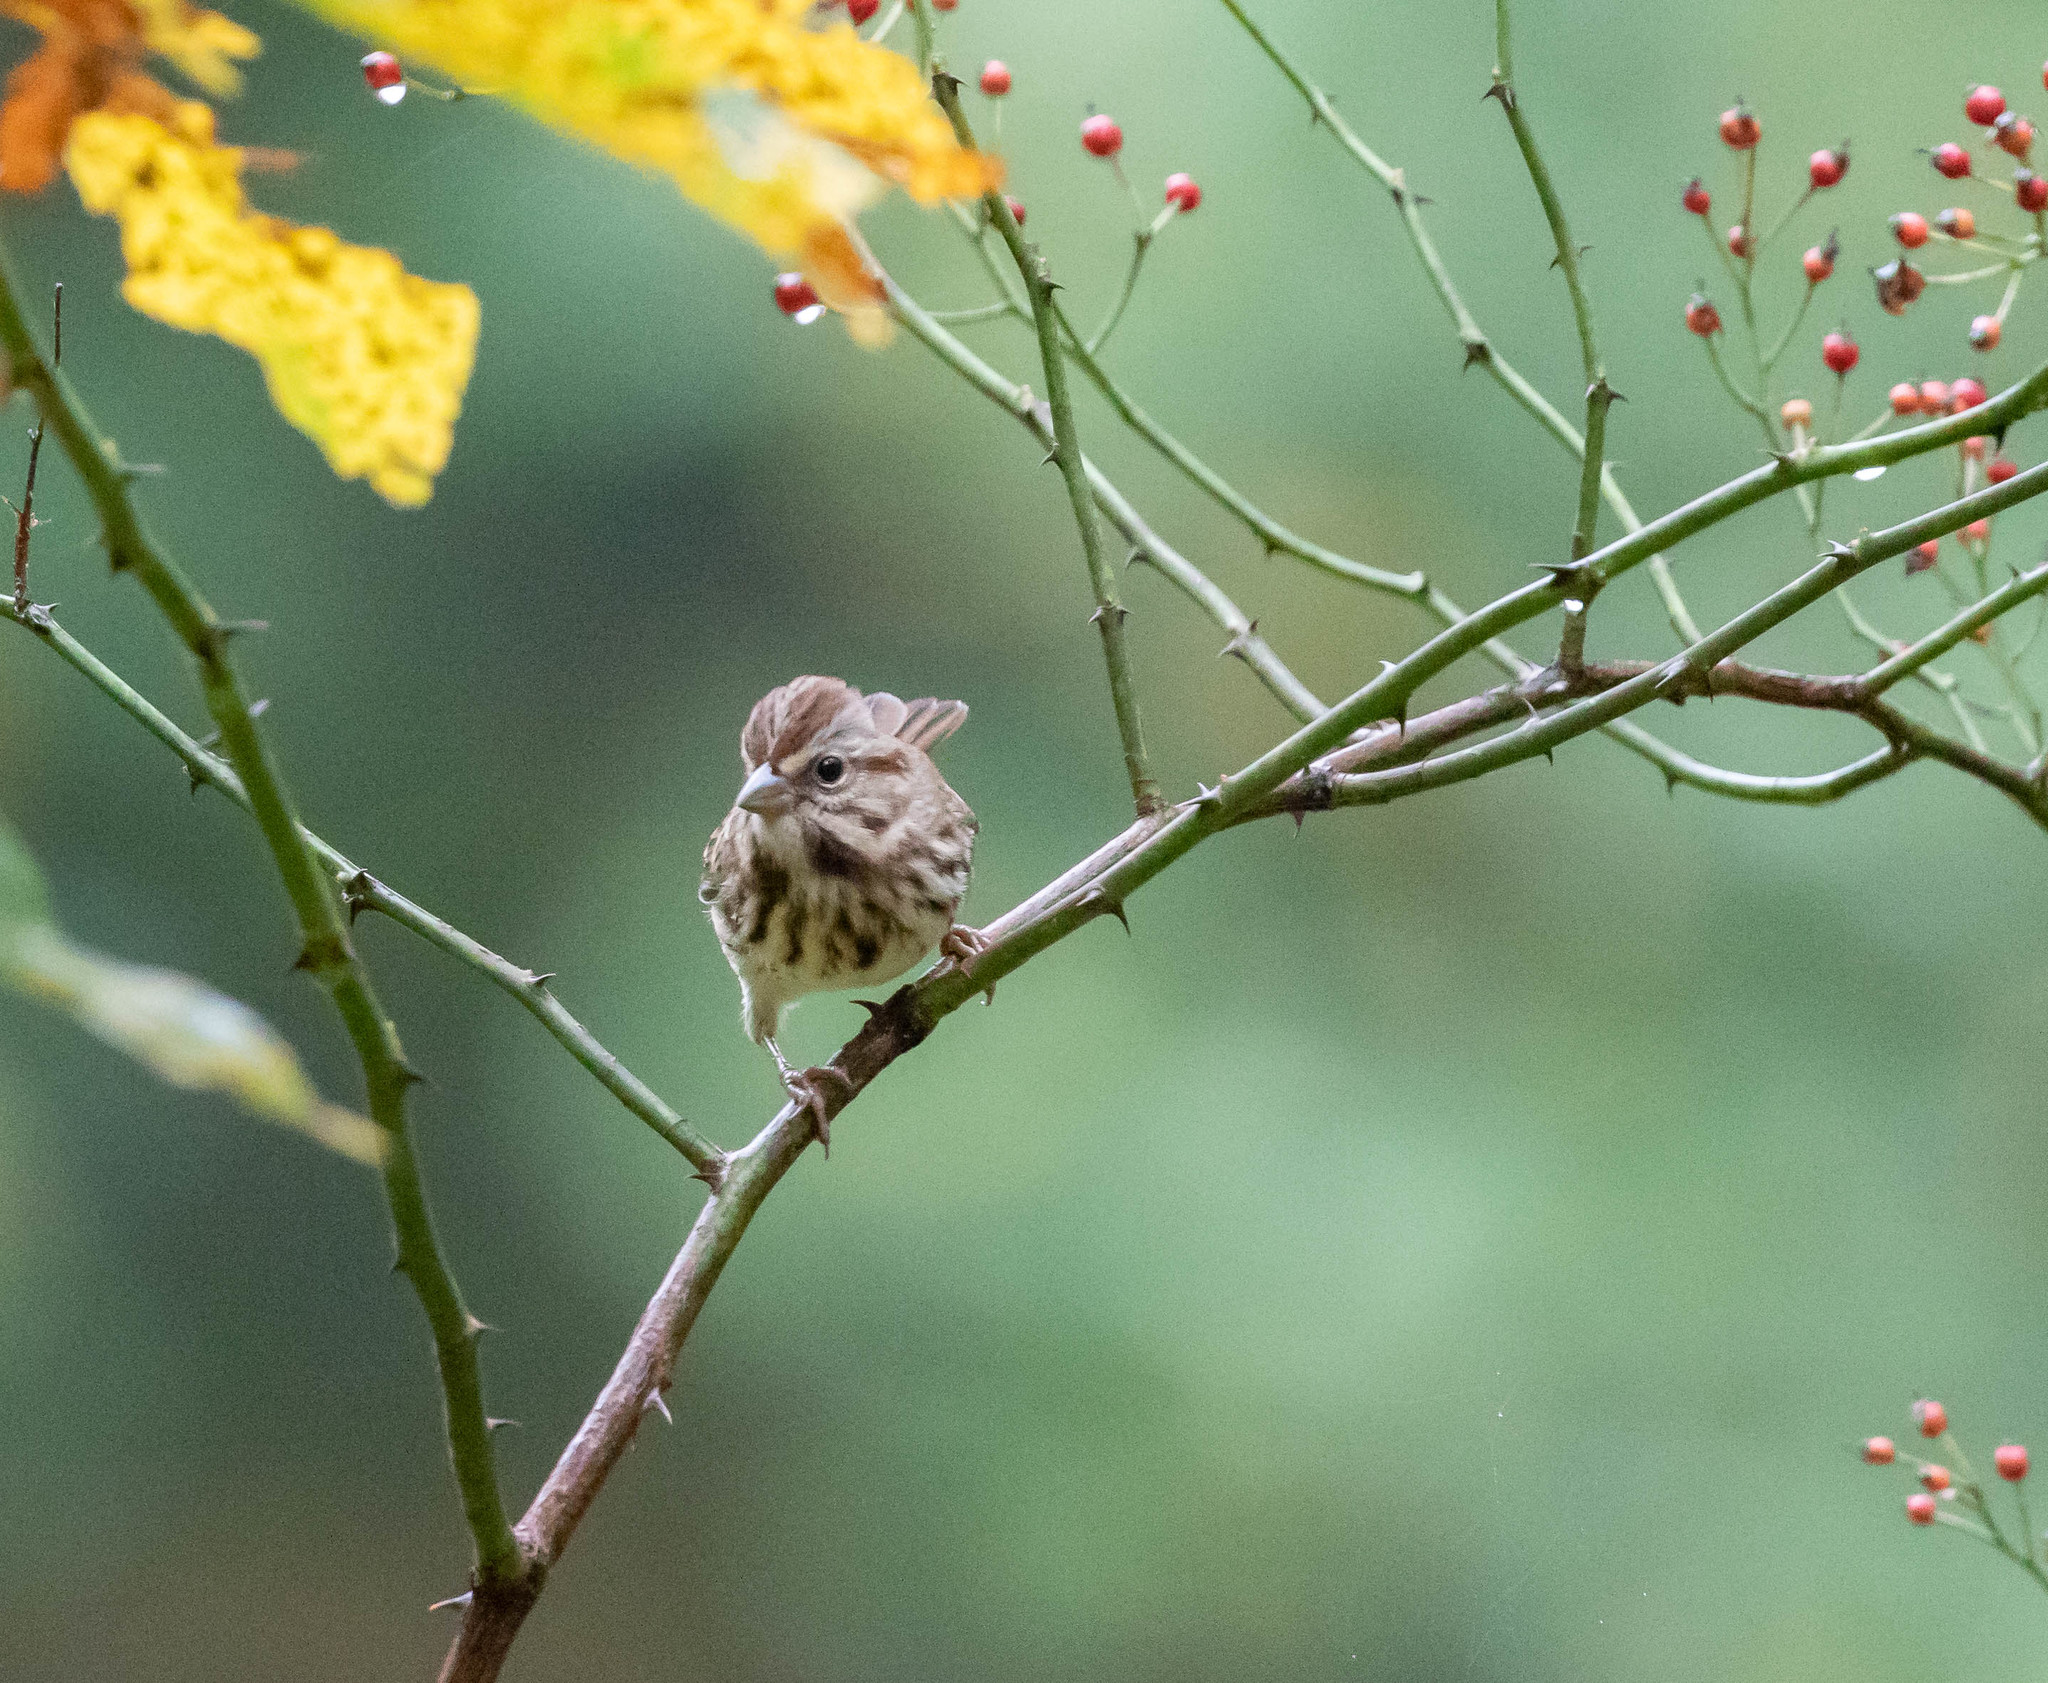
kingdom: Animalia
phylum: Chordata
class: Aves
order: Passeriformes
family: Passerellidae
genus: Melospiza
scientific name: Melospiza melodia
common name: Song sparrow
